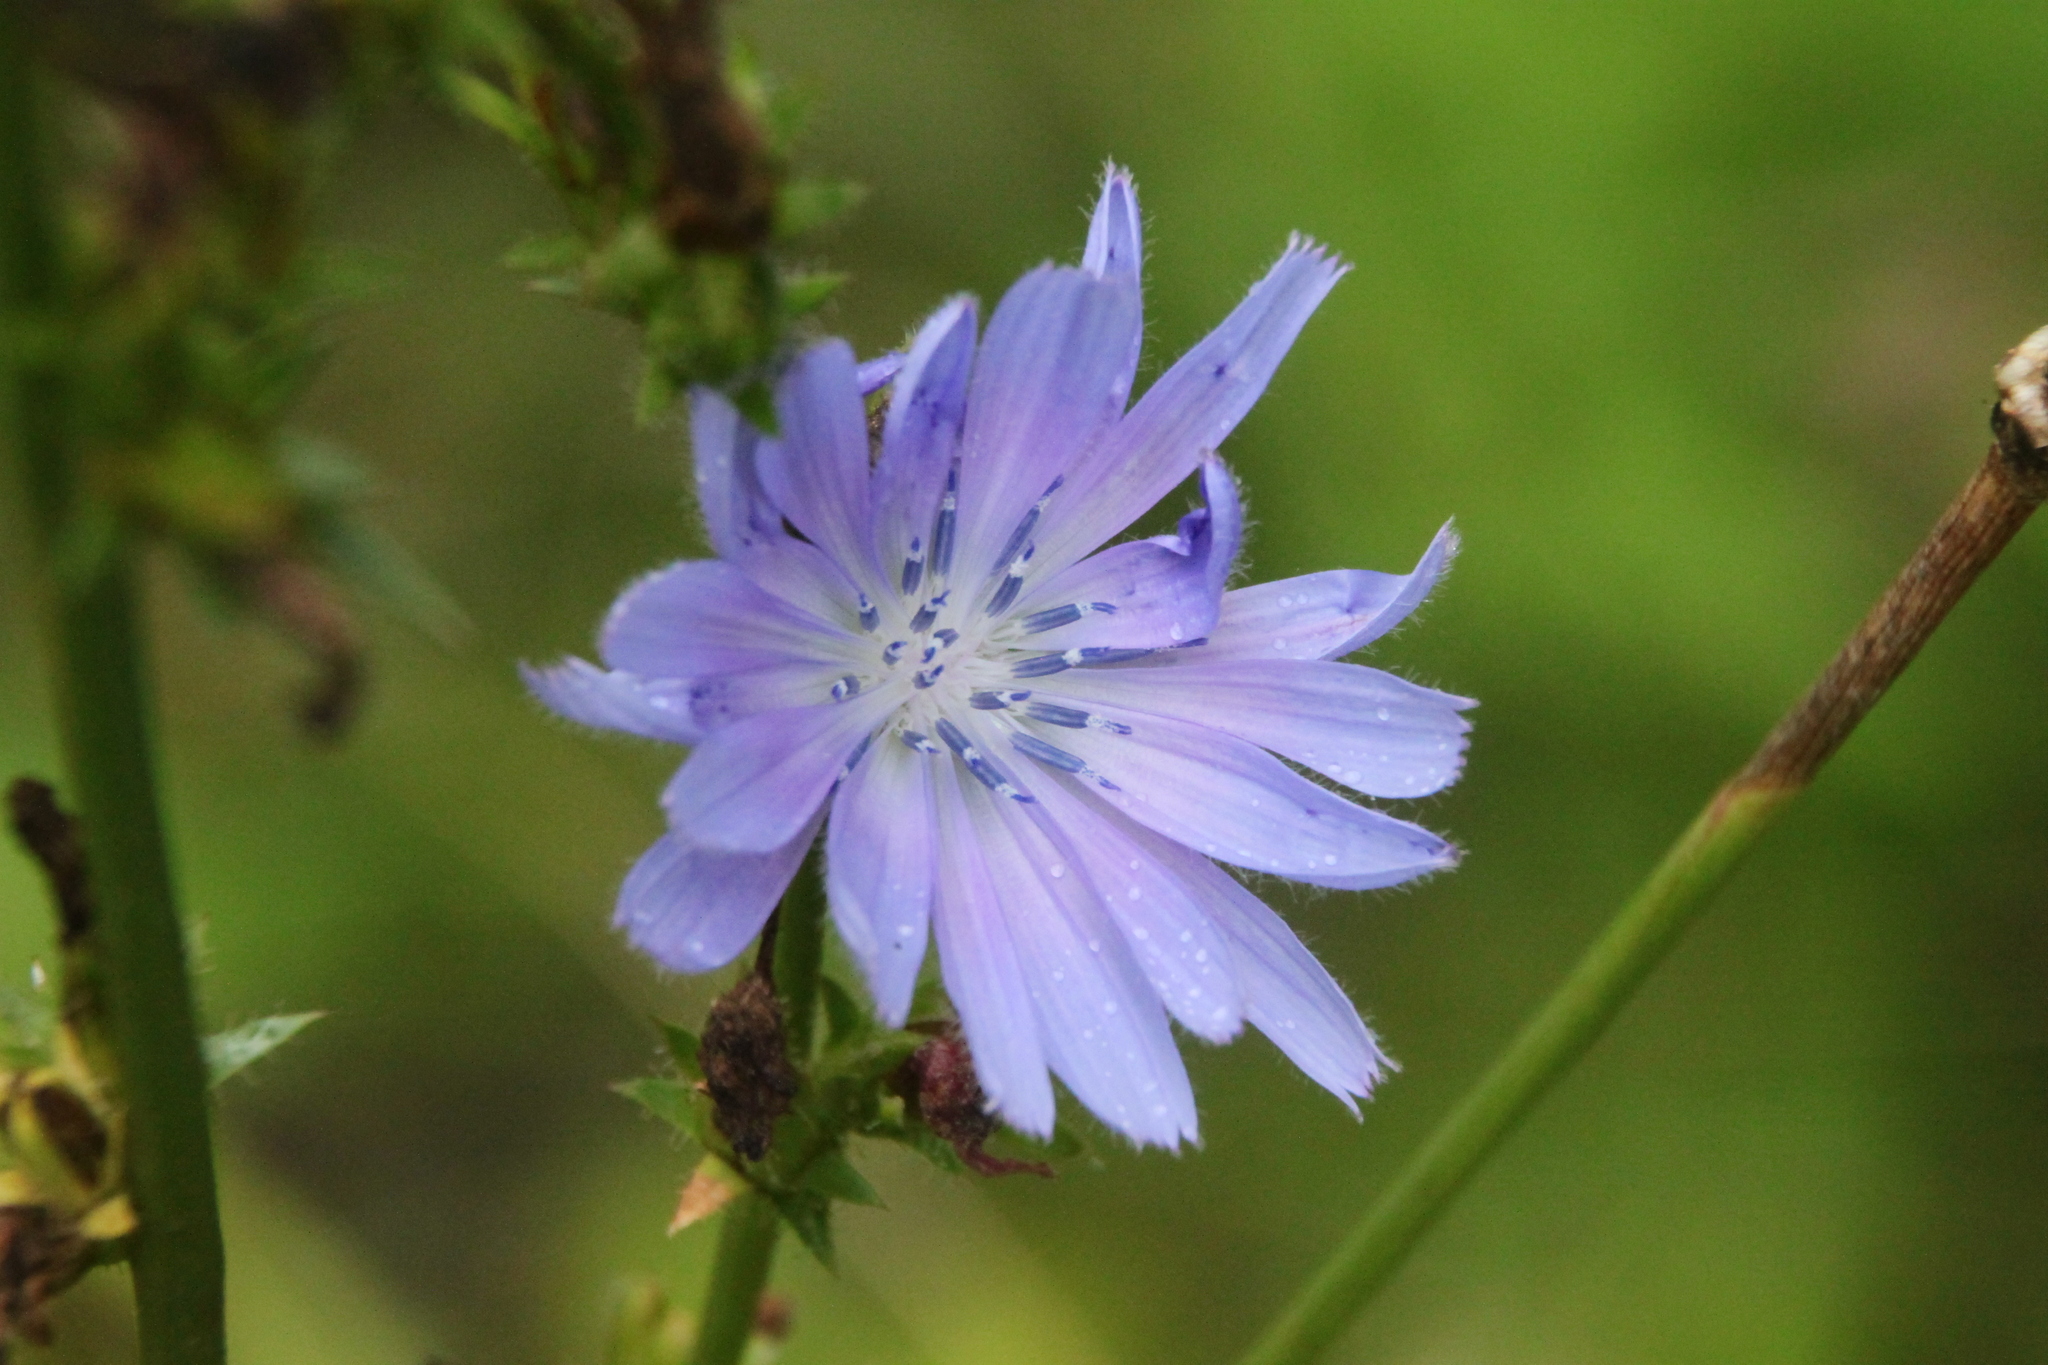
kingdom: Plantae
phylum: Tracheophyta
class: Magnoliopsida
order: Asterales
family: Asteraceae
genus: Cichorium
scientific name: Cichorium intybus
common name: Chicory
